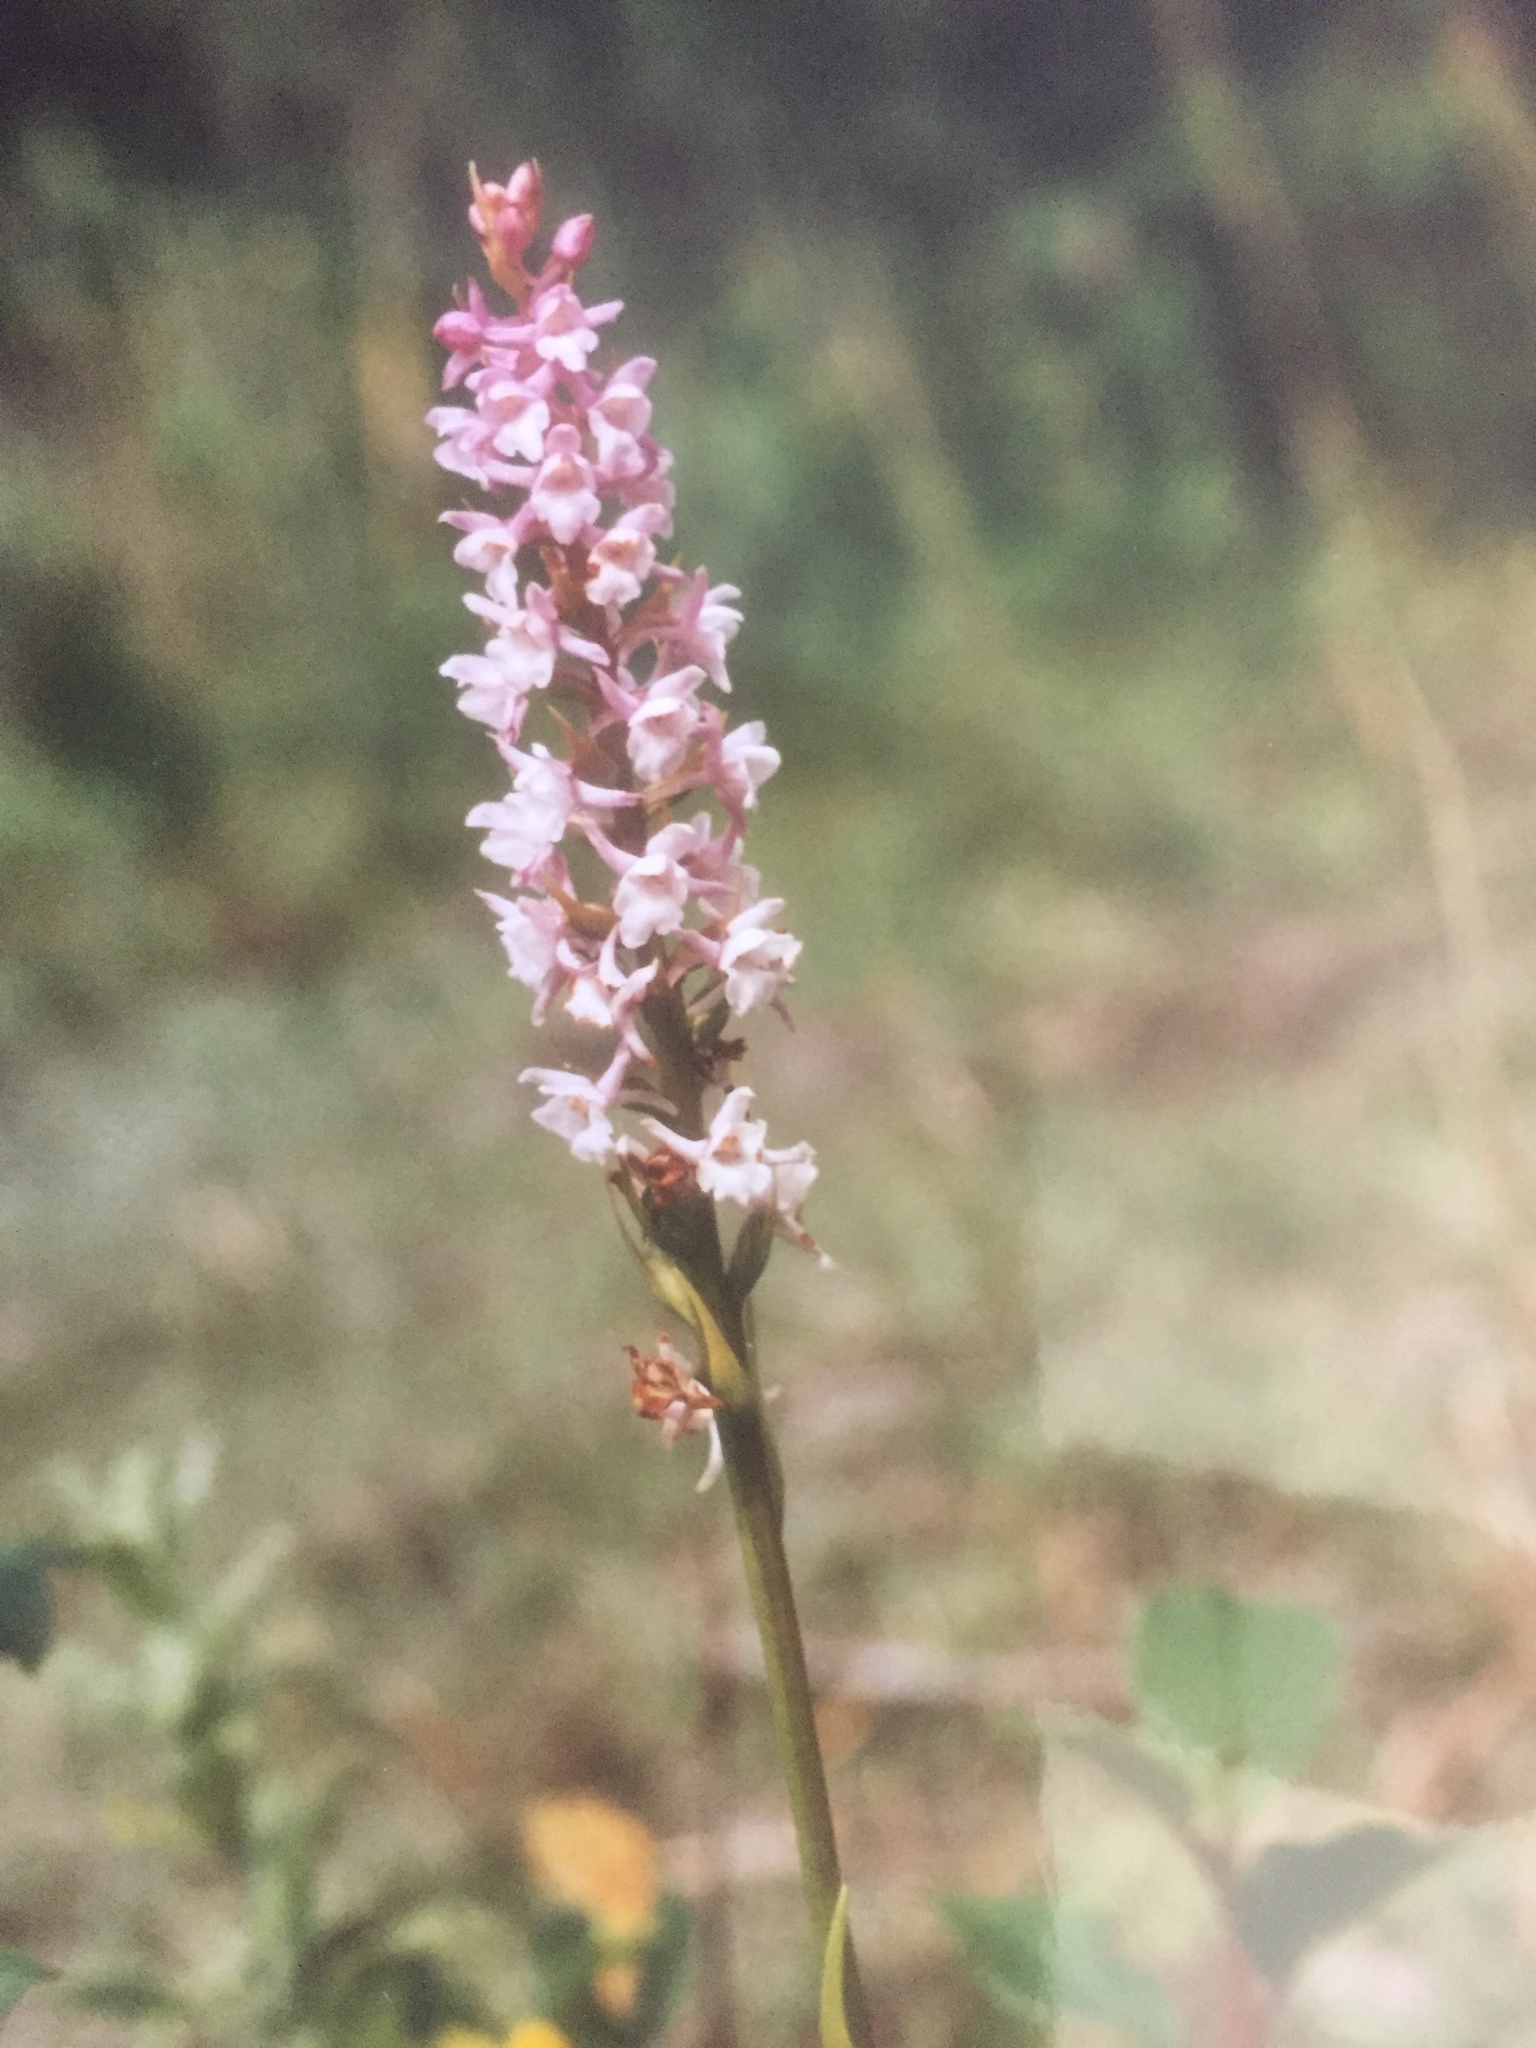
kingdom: Plantae
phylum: Tracheophyta
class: Liliopsida
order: Asparagales
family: Orchidaceae
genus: Gymnadenia
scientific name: Gymnadenia odoratissima
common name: Scented gymnadenia
